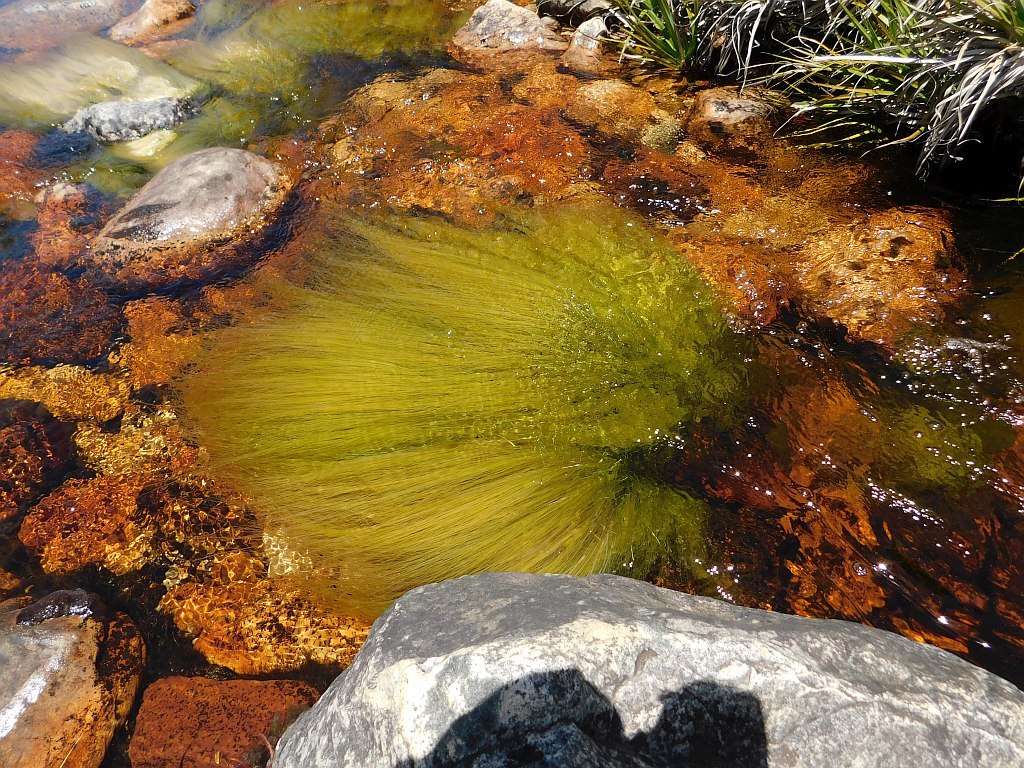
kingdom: Plantae
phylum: Tracheophyta
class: Liliopsida
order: Poales
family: Cyperaceae
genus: Isolepis
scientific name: Isolepis digitata
